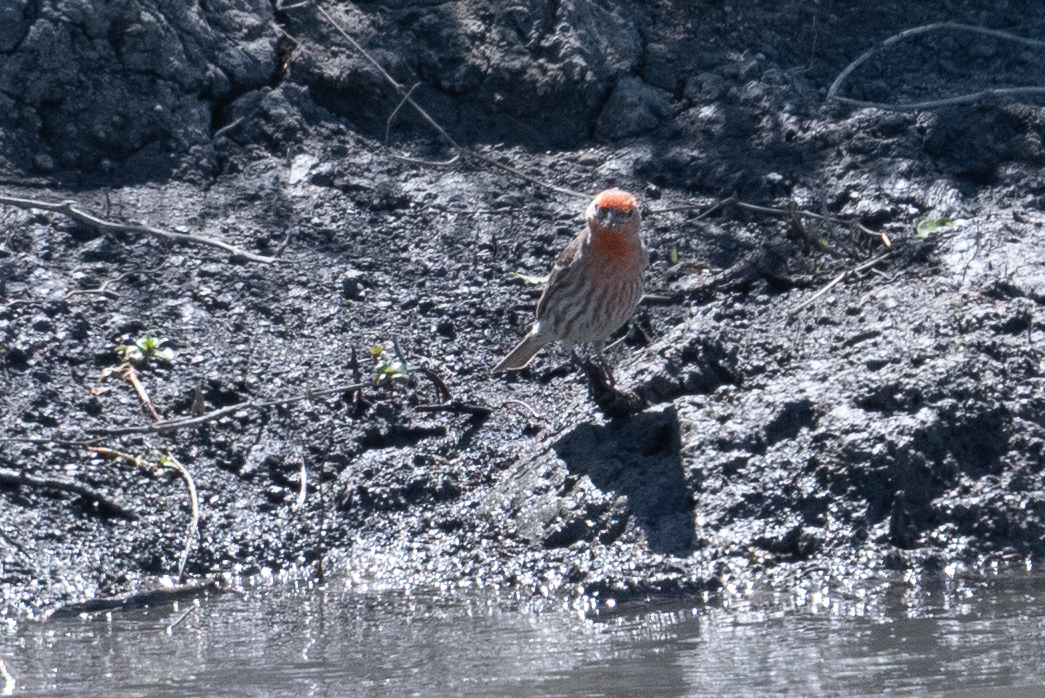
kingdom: Animalia
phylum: Chordata
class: Aves
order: Passeriformes
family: Fringillidae
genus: Haemorhous
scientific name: Haemorhous mexicanus
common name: House finch
